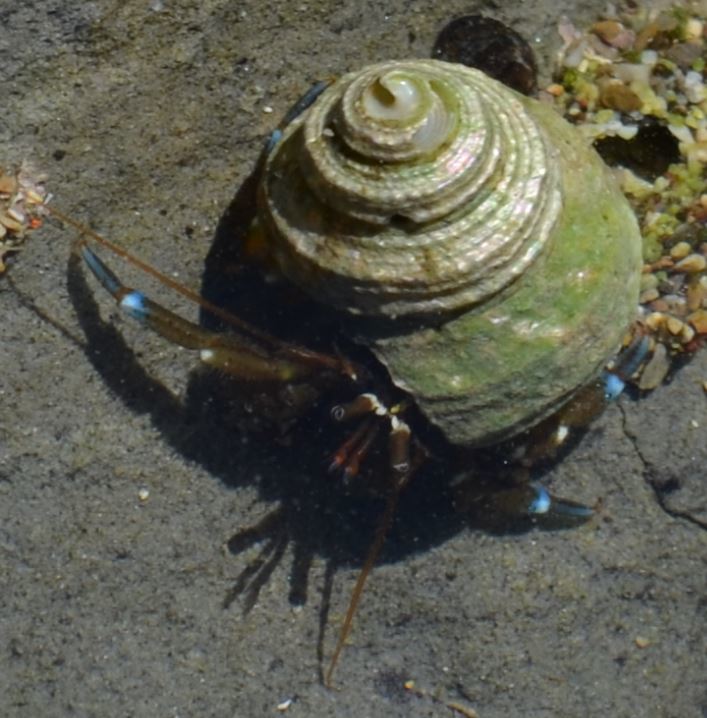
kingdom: Animalia
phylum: Arthropoda
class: Malacostraca
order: Decapoda
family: Paguridae
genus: Pagurus
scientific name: Pagurus samuelis
